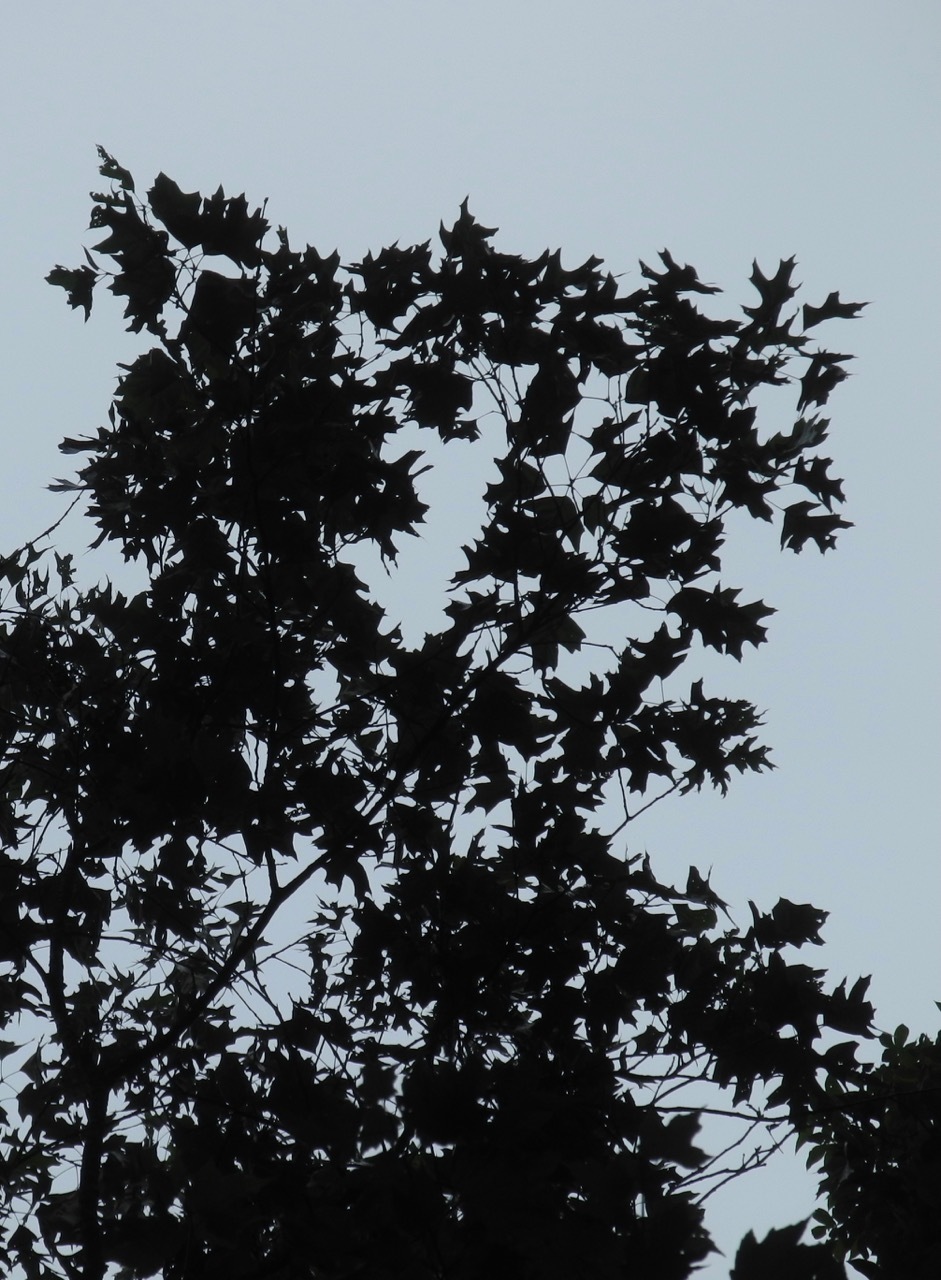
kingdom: Plantae
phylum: Tracheophyta
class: Magnoliopsida
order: Fagales
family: Fagaceae
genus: Quercus
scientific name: Quercus velutina
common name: Black oak
